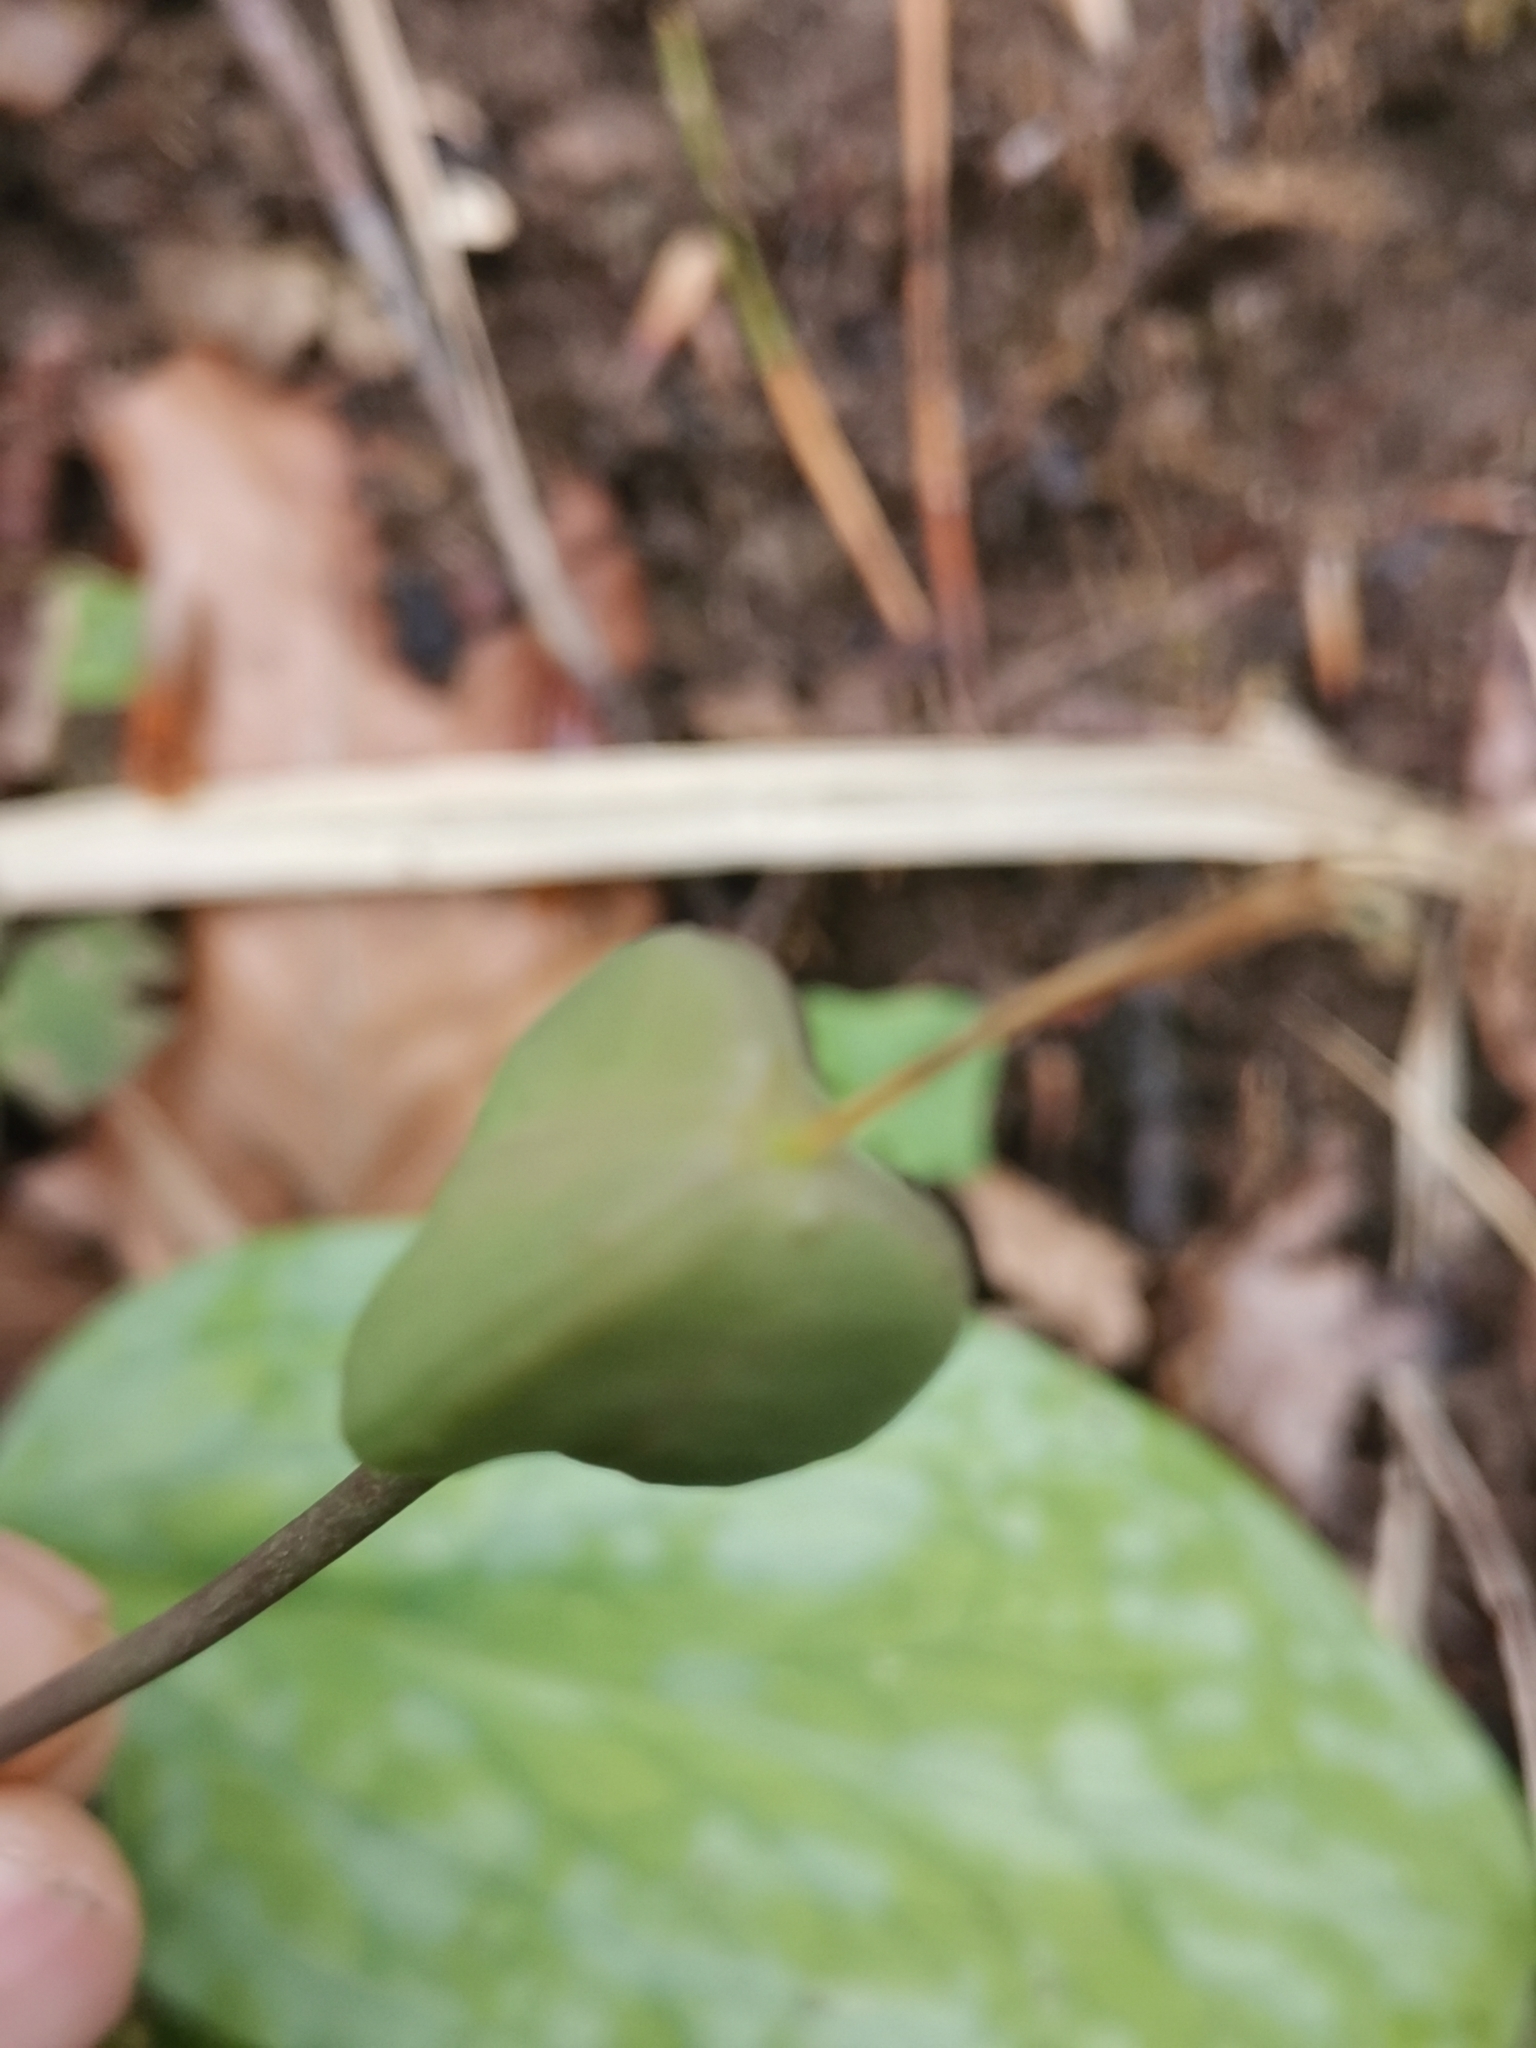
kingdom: Plantae
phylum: Tracheophyta
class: Liliopsida
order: Liliales
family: Liliaceae
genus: Erythronium
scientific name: Erythronium dens-canis
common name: Dog's-tooth-violet
